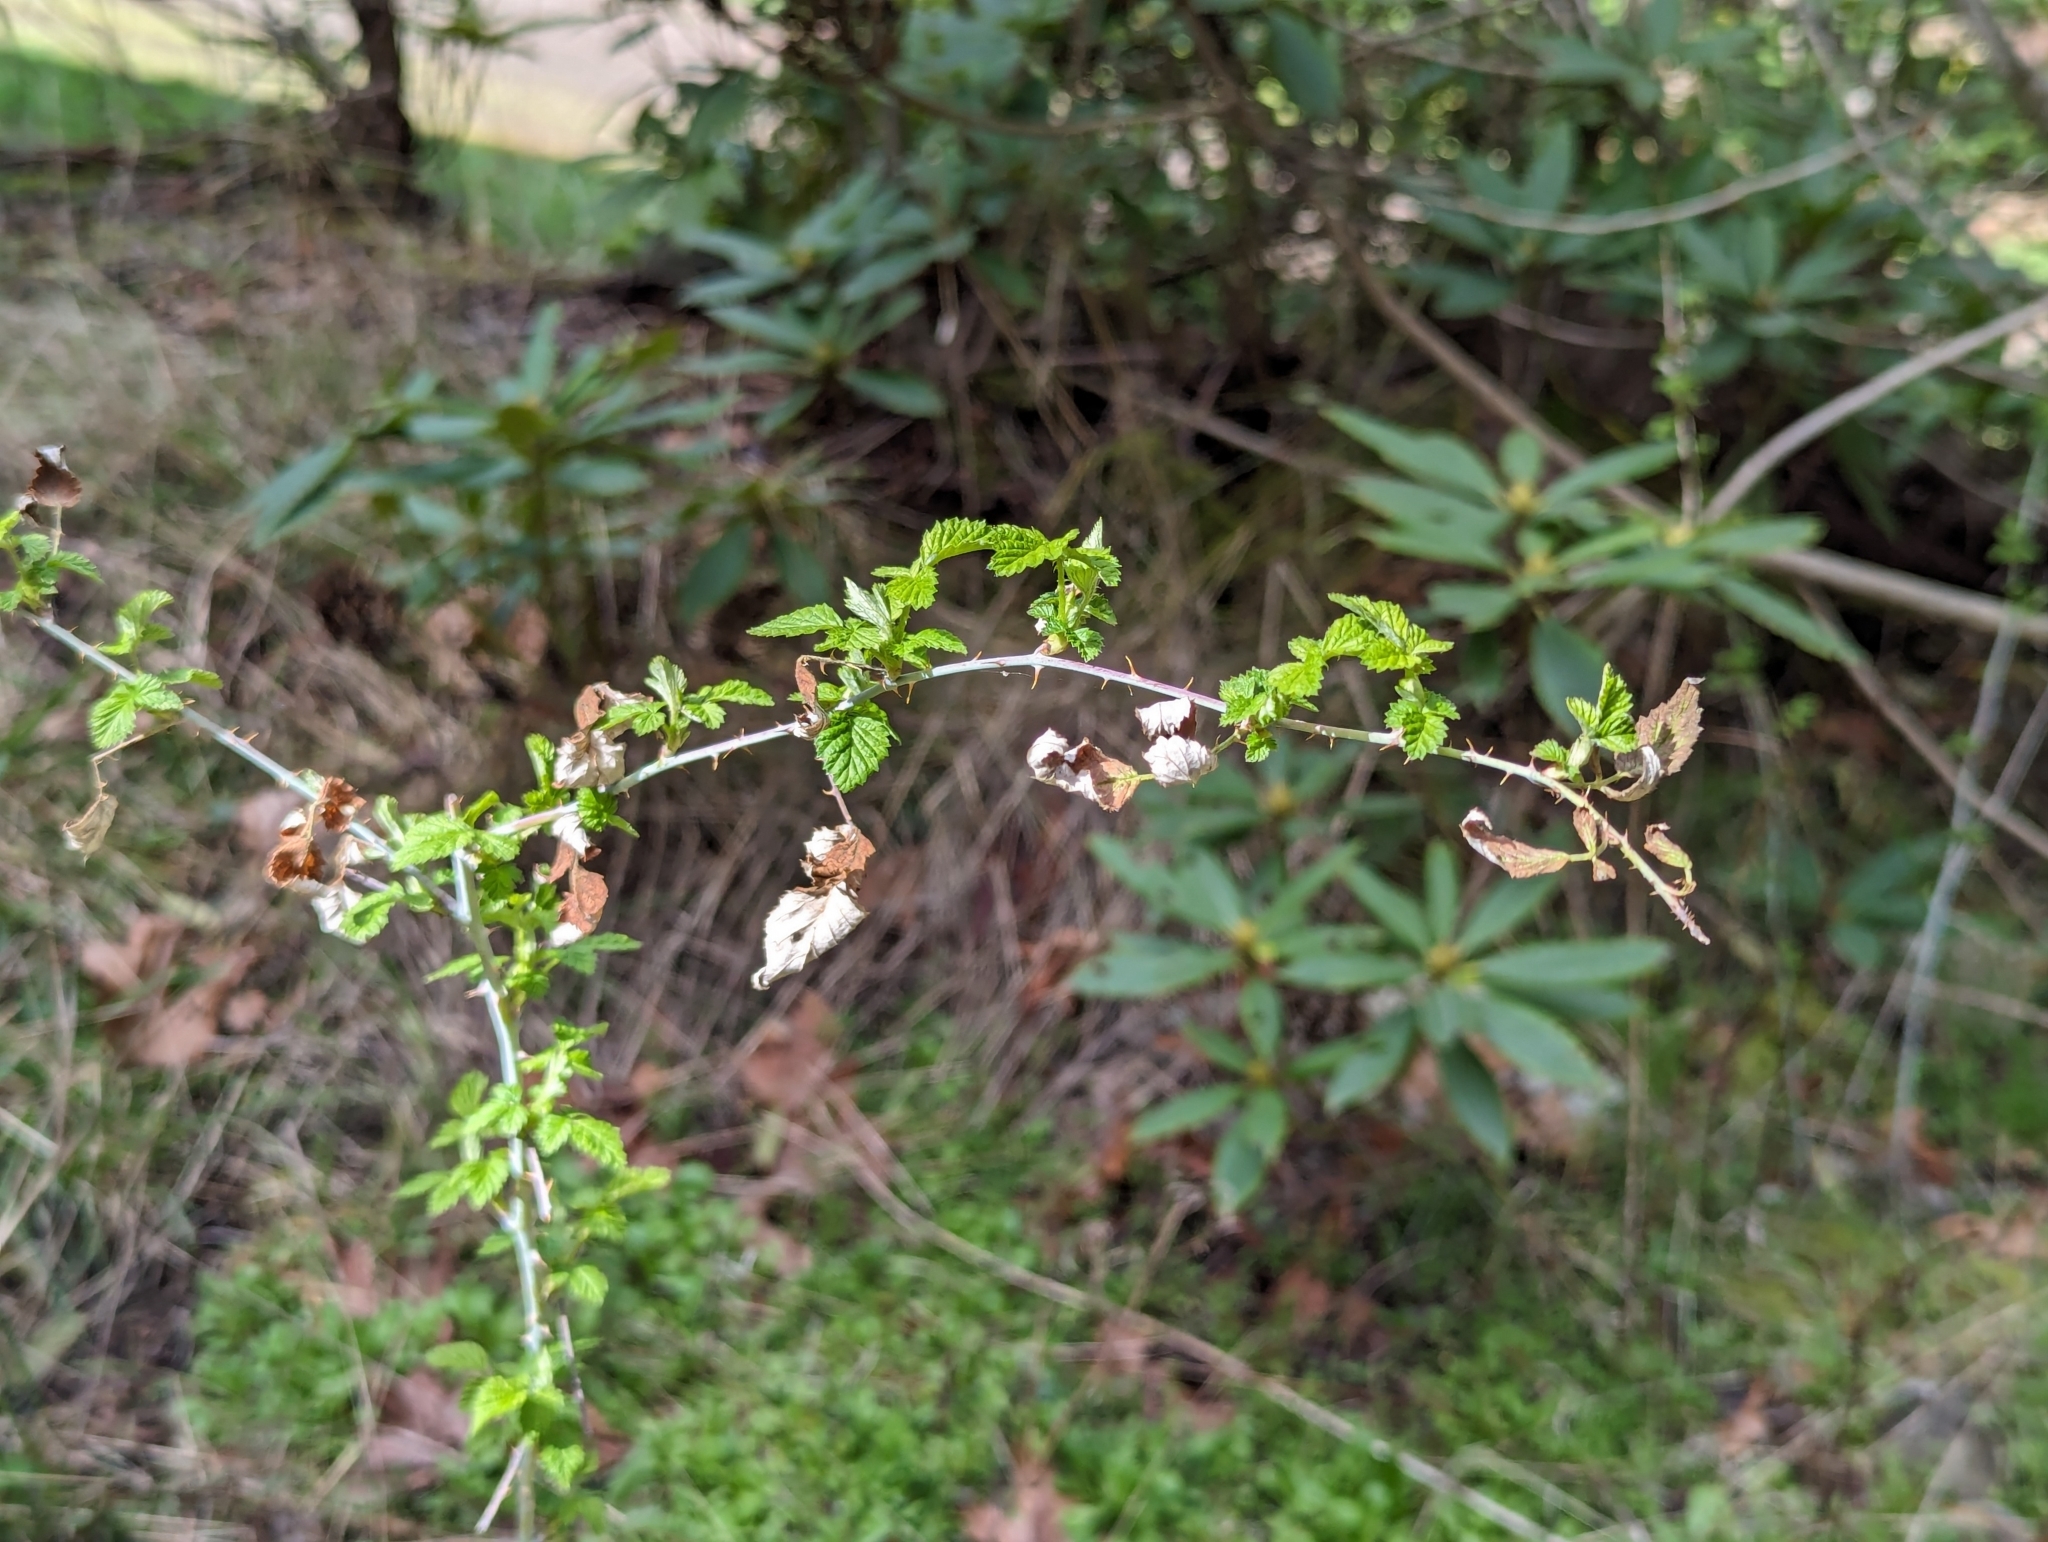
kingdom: Plantae
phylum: Tracheophyta
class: Magnoliopsida
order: Rosales
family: Rosaceae
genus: Rubus
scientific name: Rubus leucodermis
